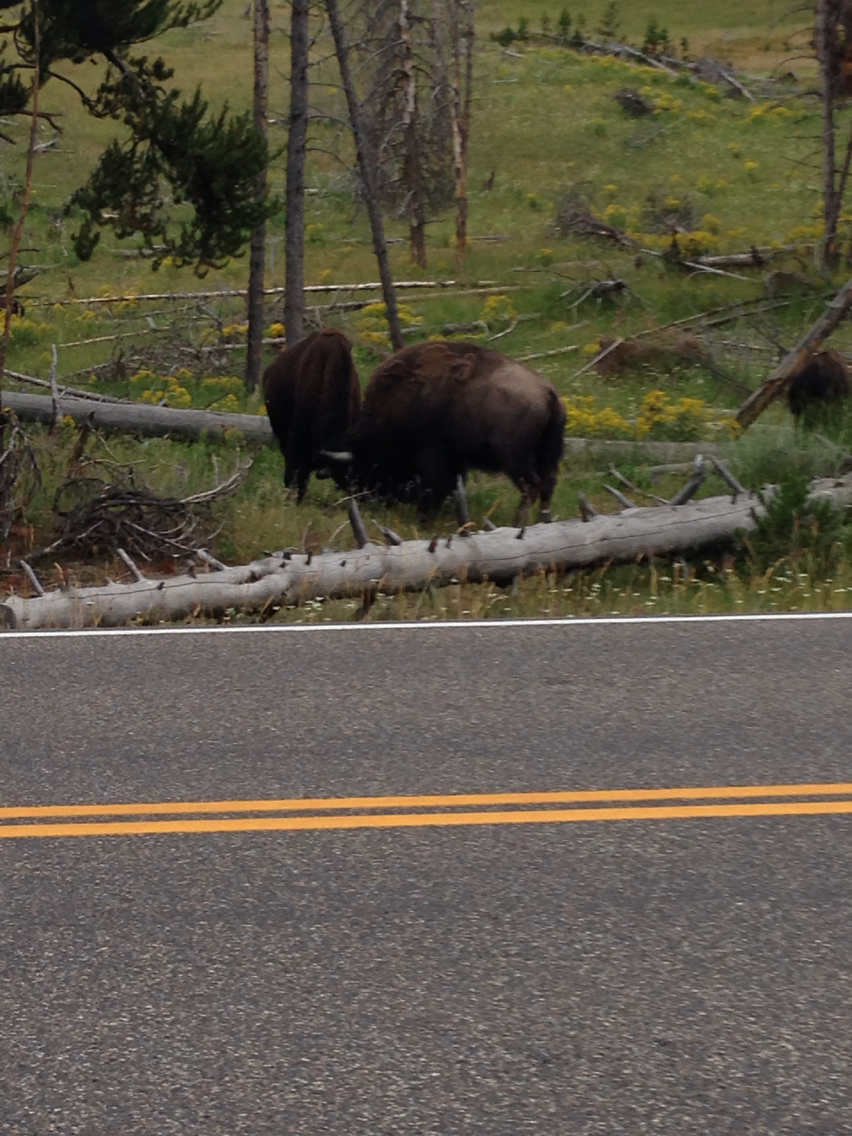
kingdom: Animalia
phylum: Chordata
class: Mammalia
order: Artiodactyla
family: Bovidae
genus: Bison
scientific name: Bison bison
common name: American bison
